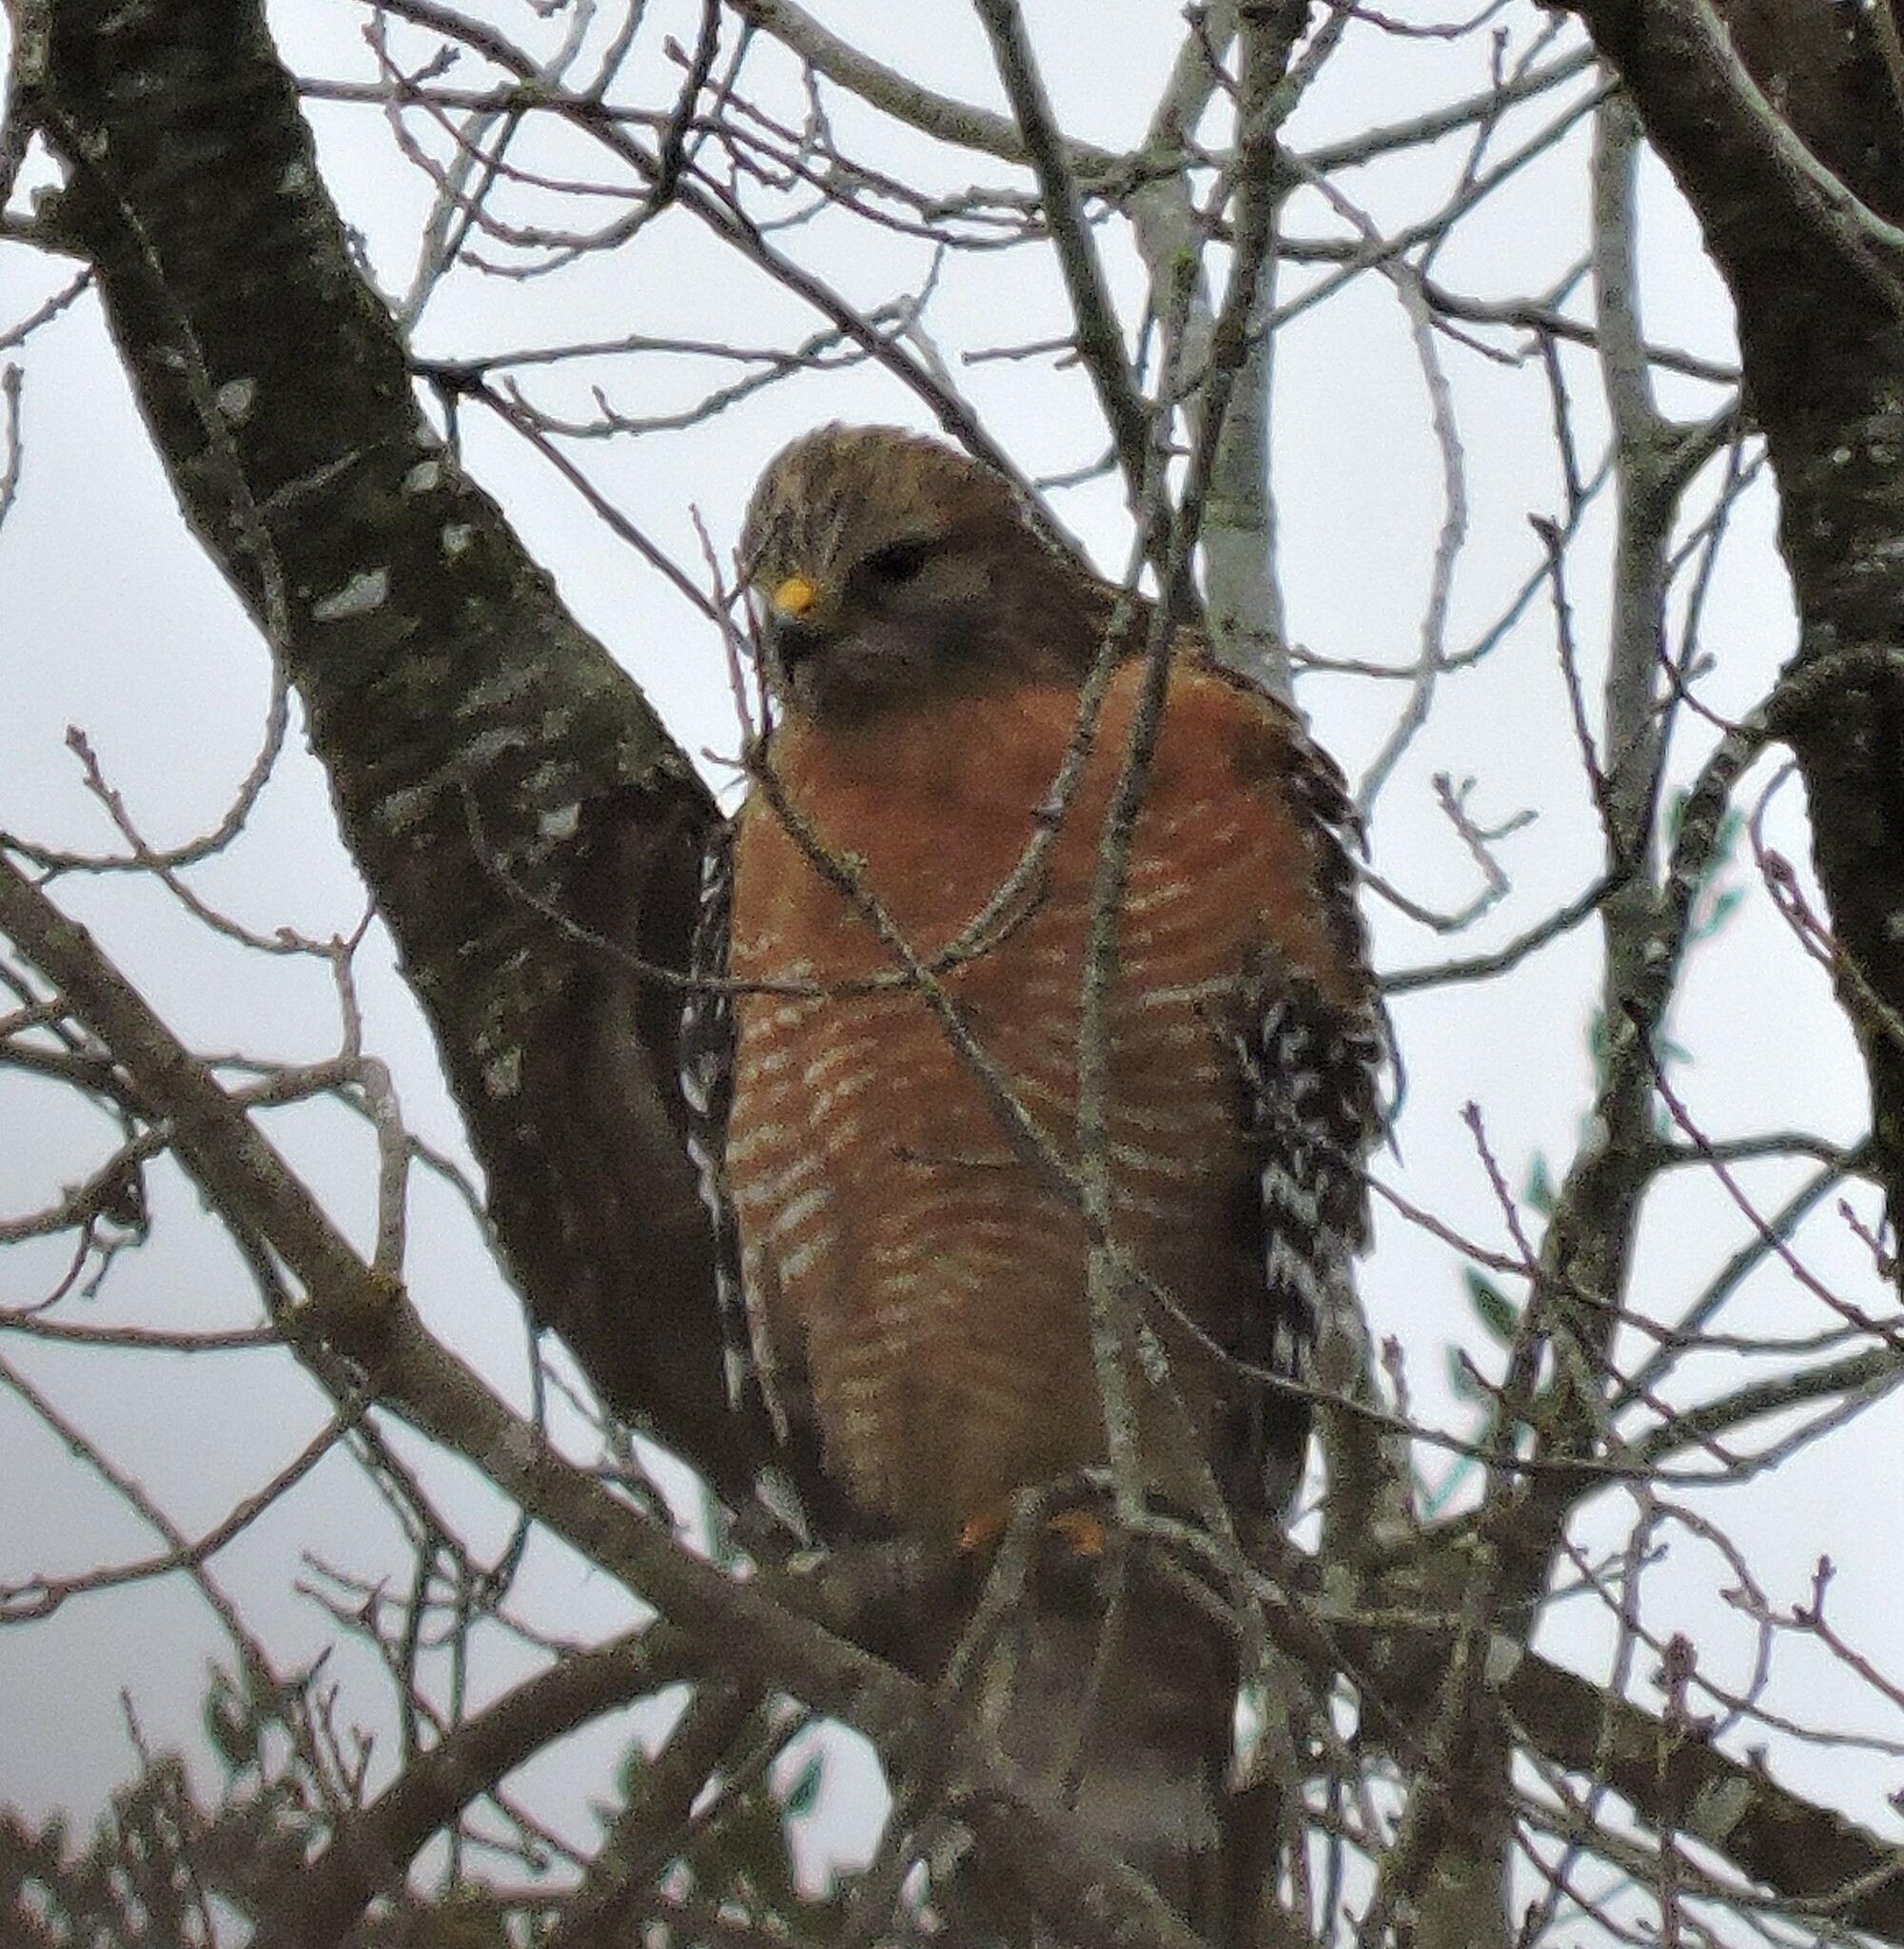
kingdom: Animalia
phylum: Chordata
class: Aves
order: Accipitriformes
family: Accipitridae
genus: Buteo
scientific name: Buteo lineatus
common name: Red-shouldered hawk
